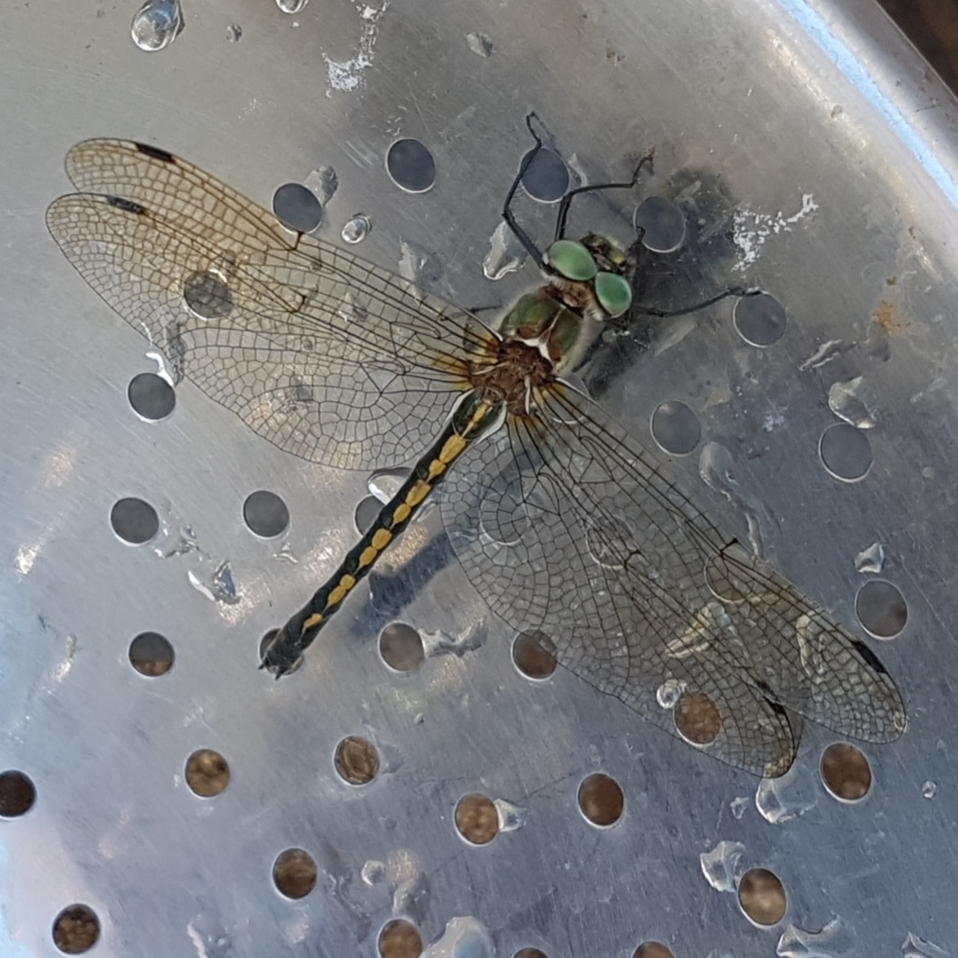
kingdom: Animalia
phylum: Arthropoda
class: Insecta
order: Odonata
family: Corduliidae
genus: Oxygastra
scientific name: Oxygastra curtisii
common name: Orange-spotted emerald
